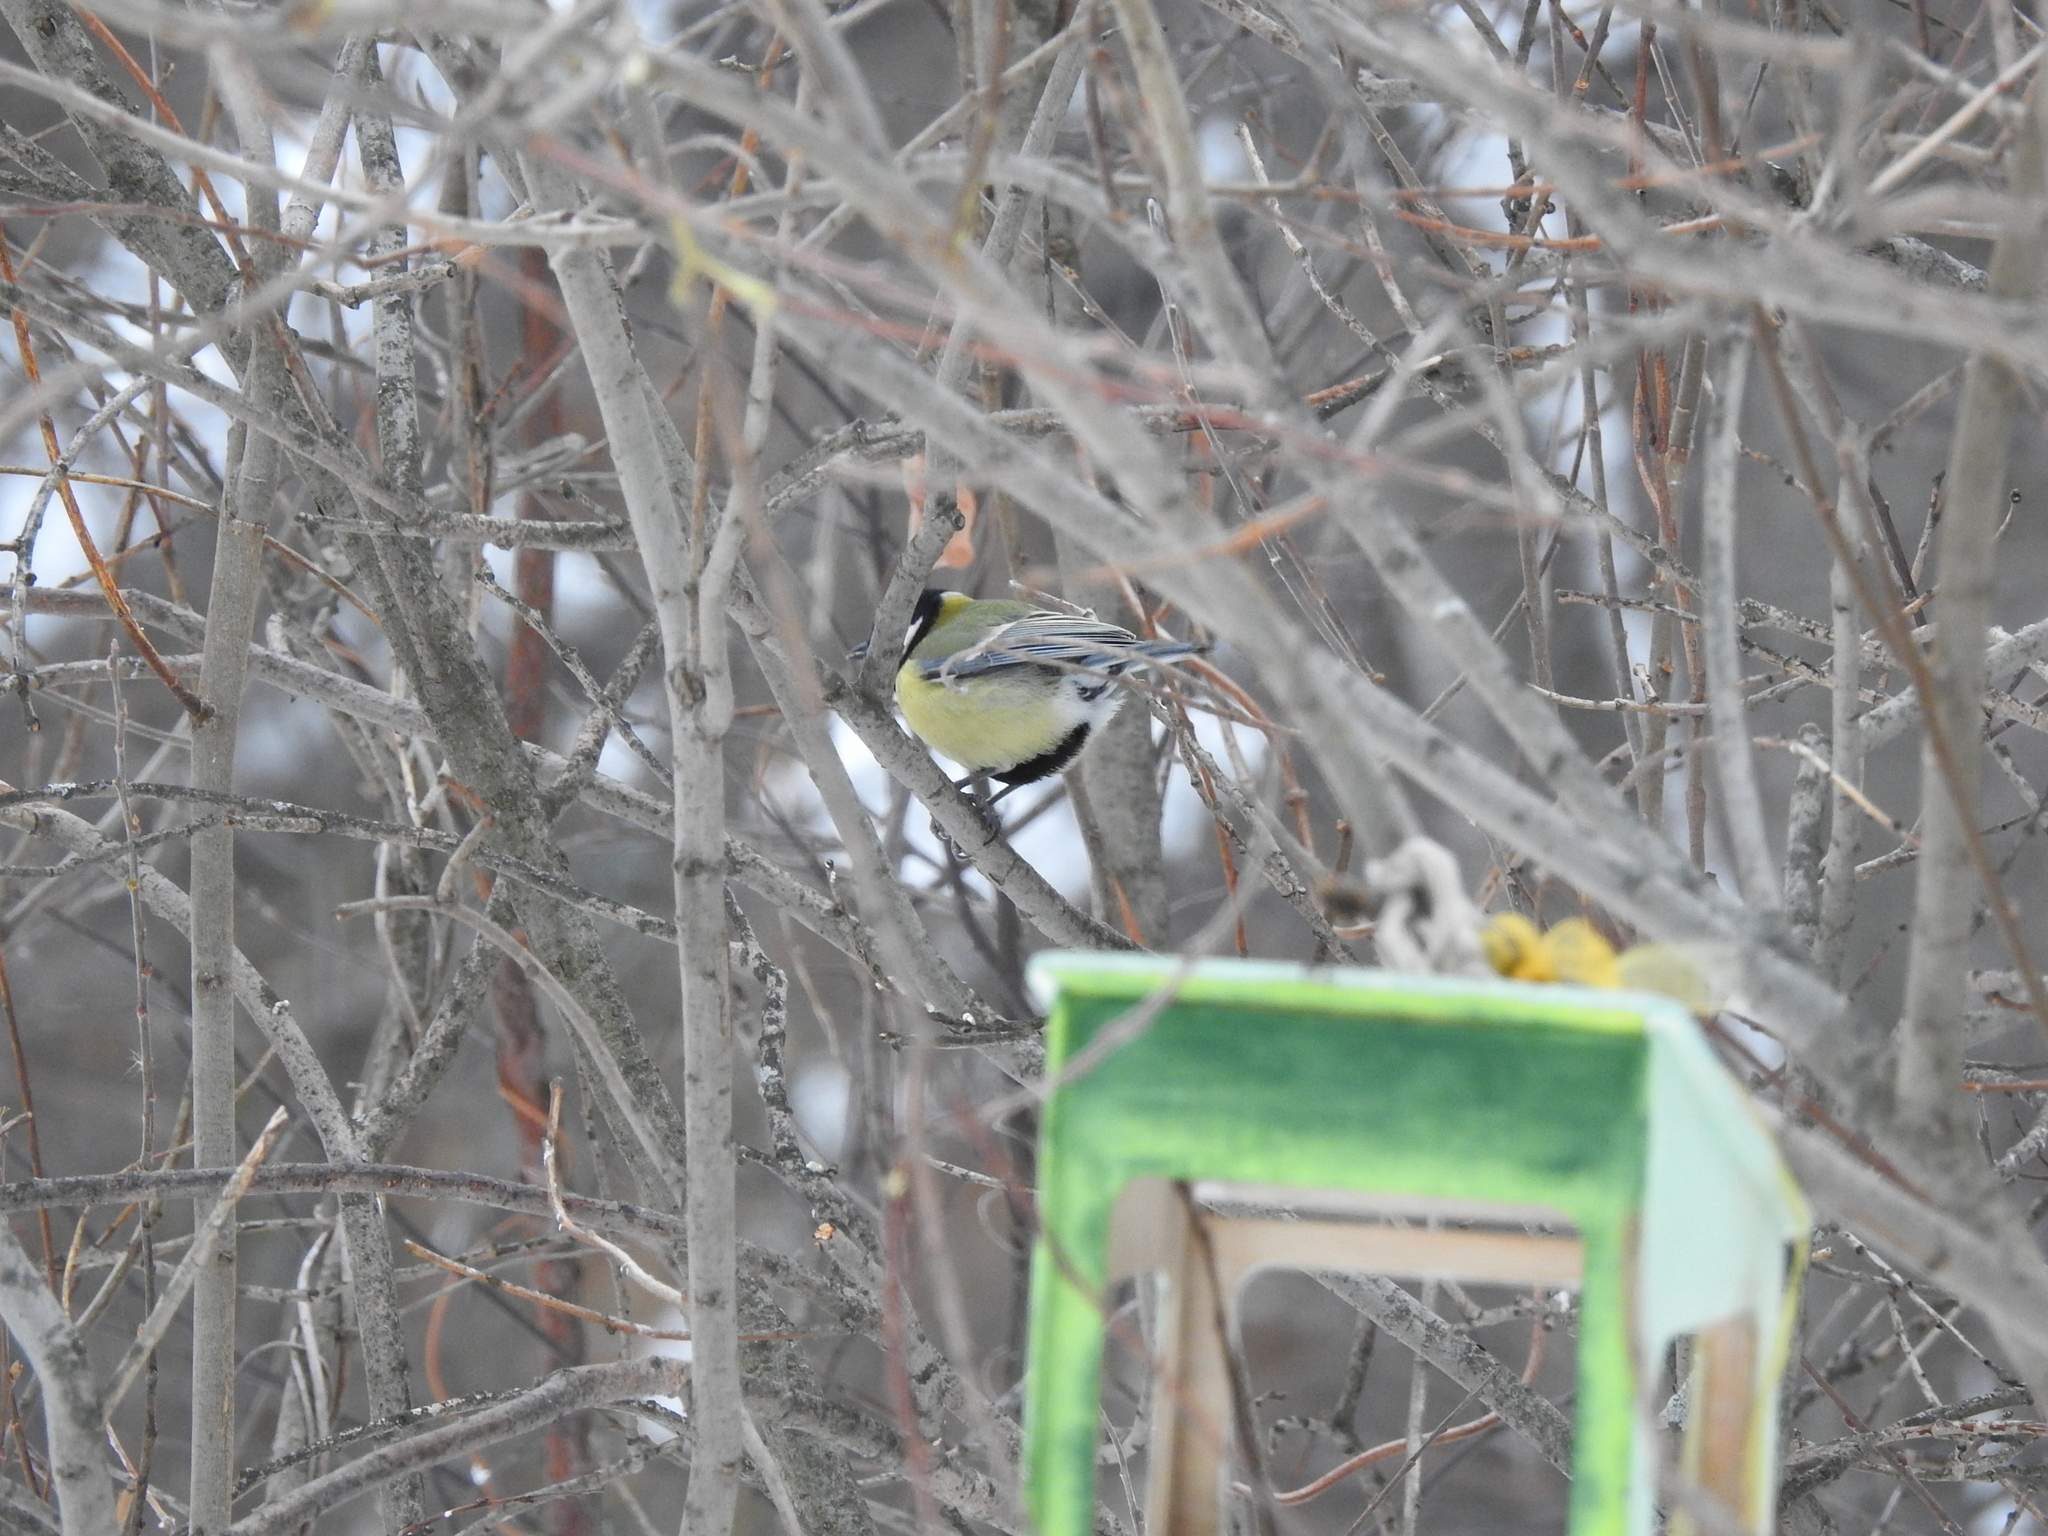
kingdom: Animalia
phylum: Chordata
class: Aves
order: Passeriformes
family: Paridae
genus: Parus
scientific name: Parus major
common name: Great tit
